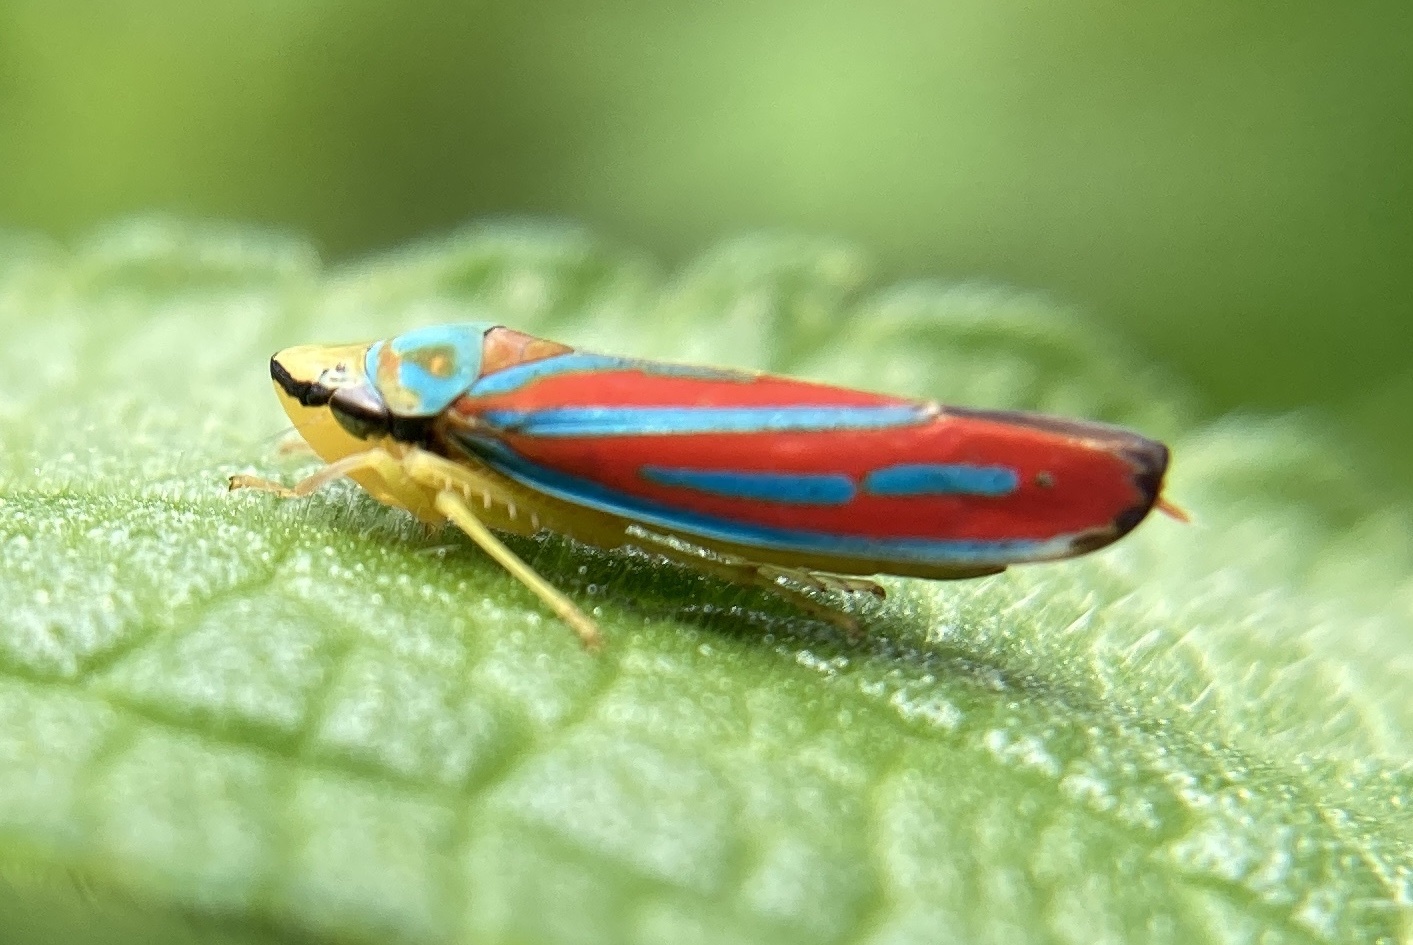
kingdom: Animalia
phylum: Arthropoda
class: Insecta
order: Hemiptera
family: Cicadellidae
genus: Graphocephala
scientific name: Graphocephala coccinea
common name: Candy-striped leafhopper
